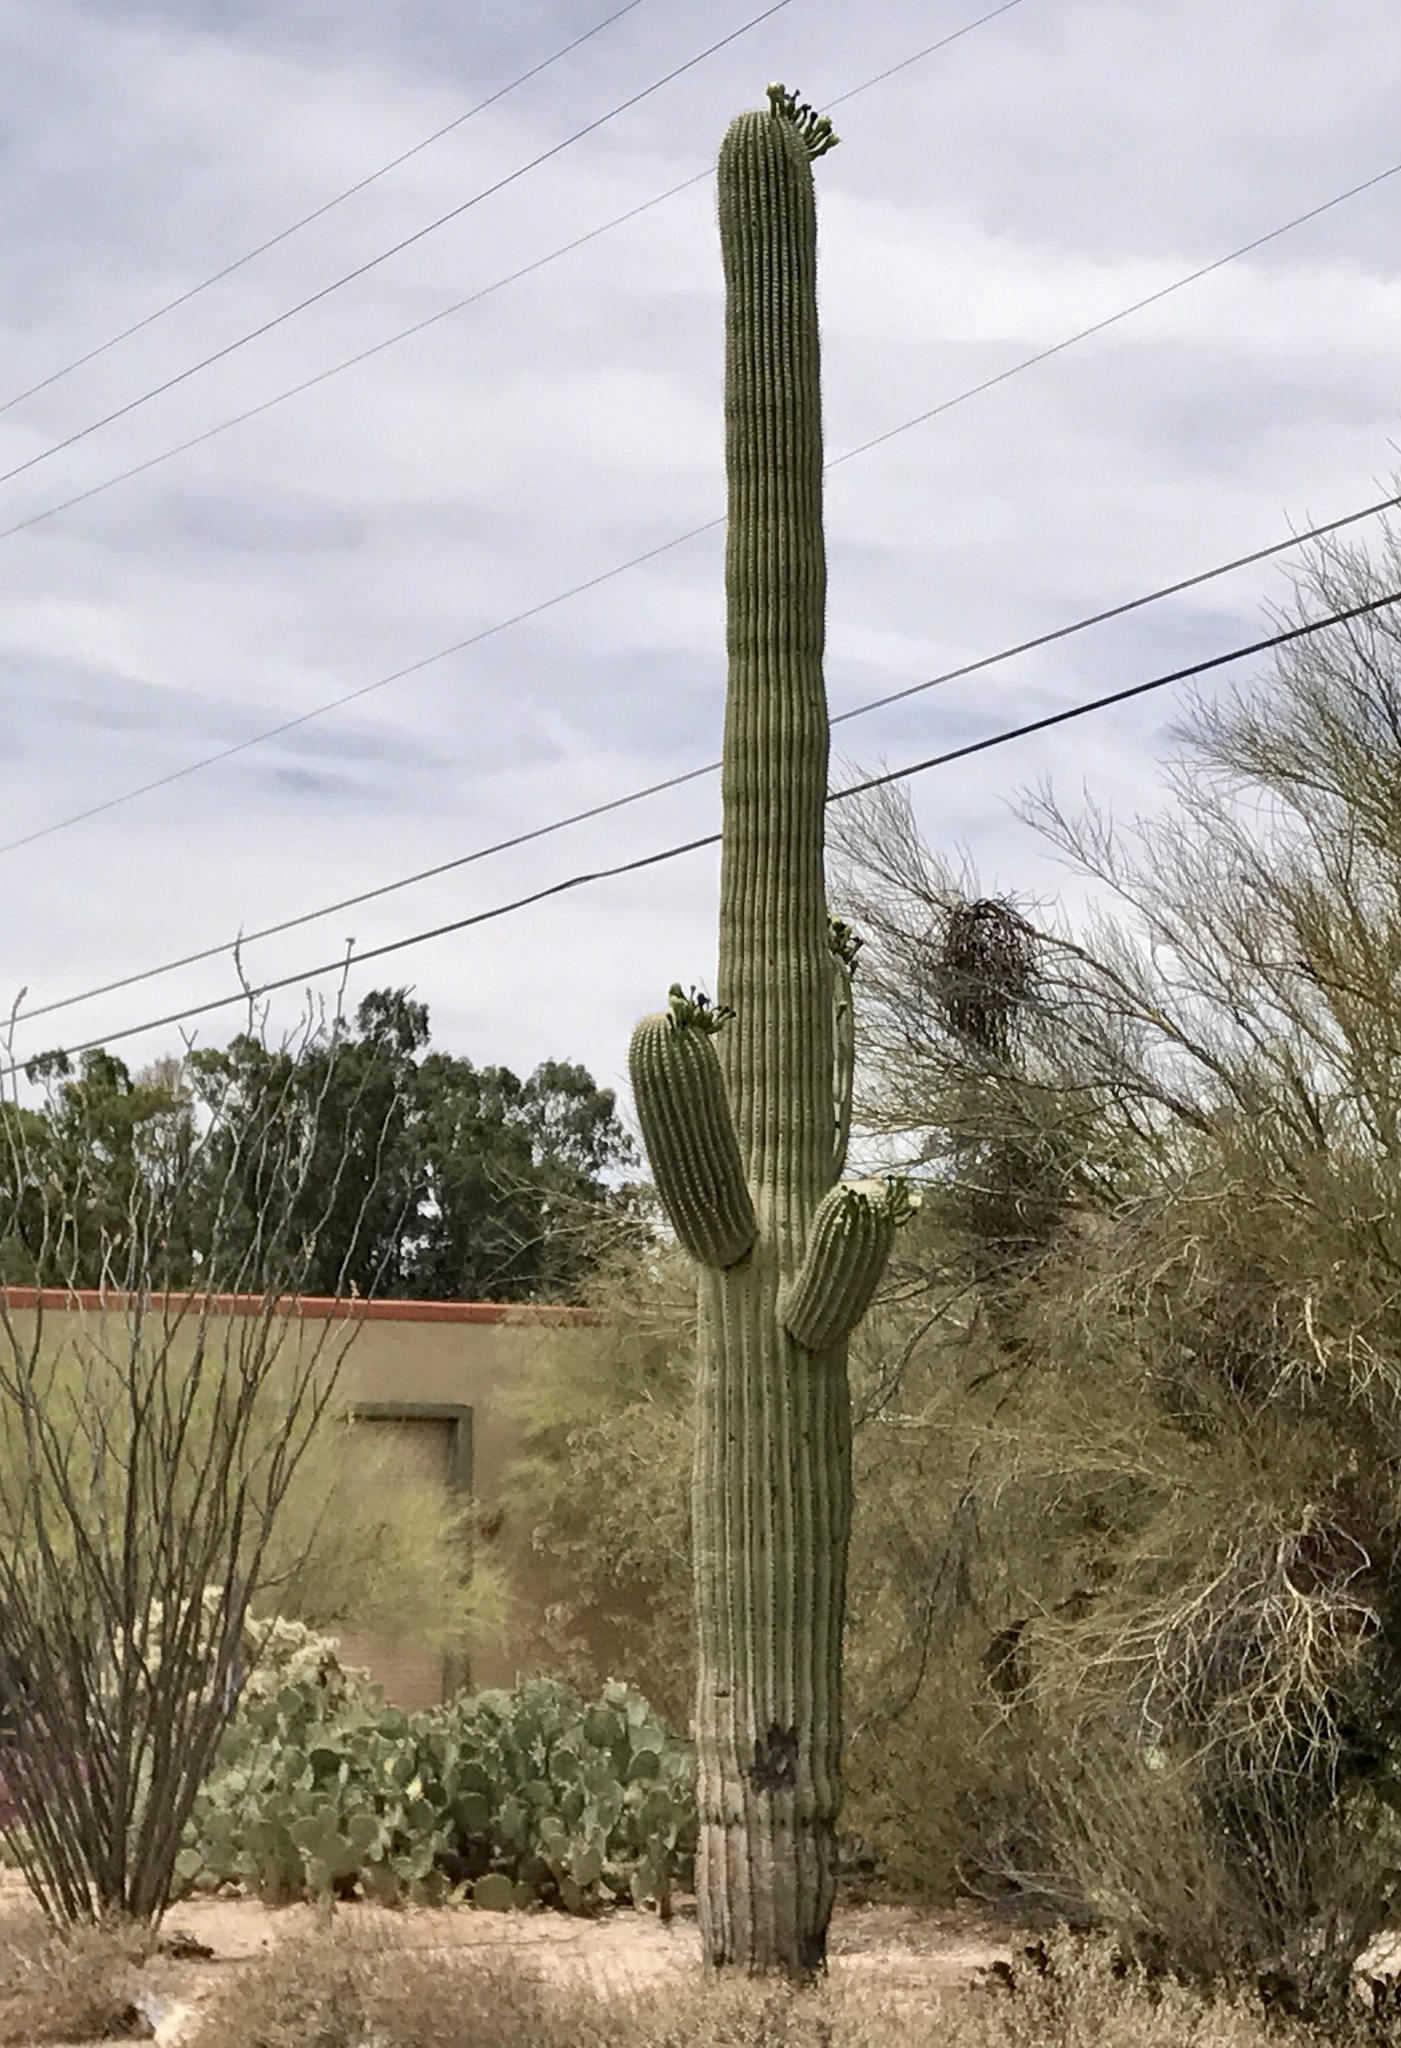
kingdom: Plantae
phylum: Tracheophyta
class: Magnoliopsida
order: Caryophyllales
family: Cactaceae
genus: Carnegiea
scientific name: Carnegiea gigantea
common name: Saguaro
